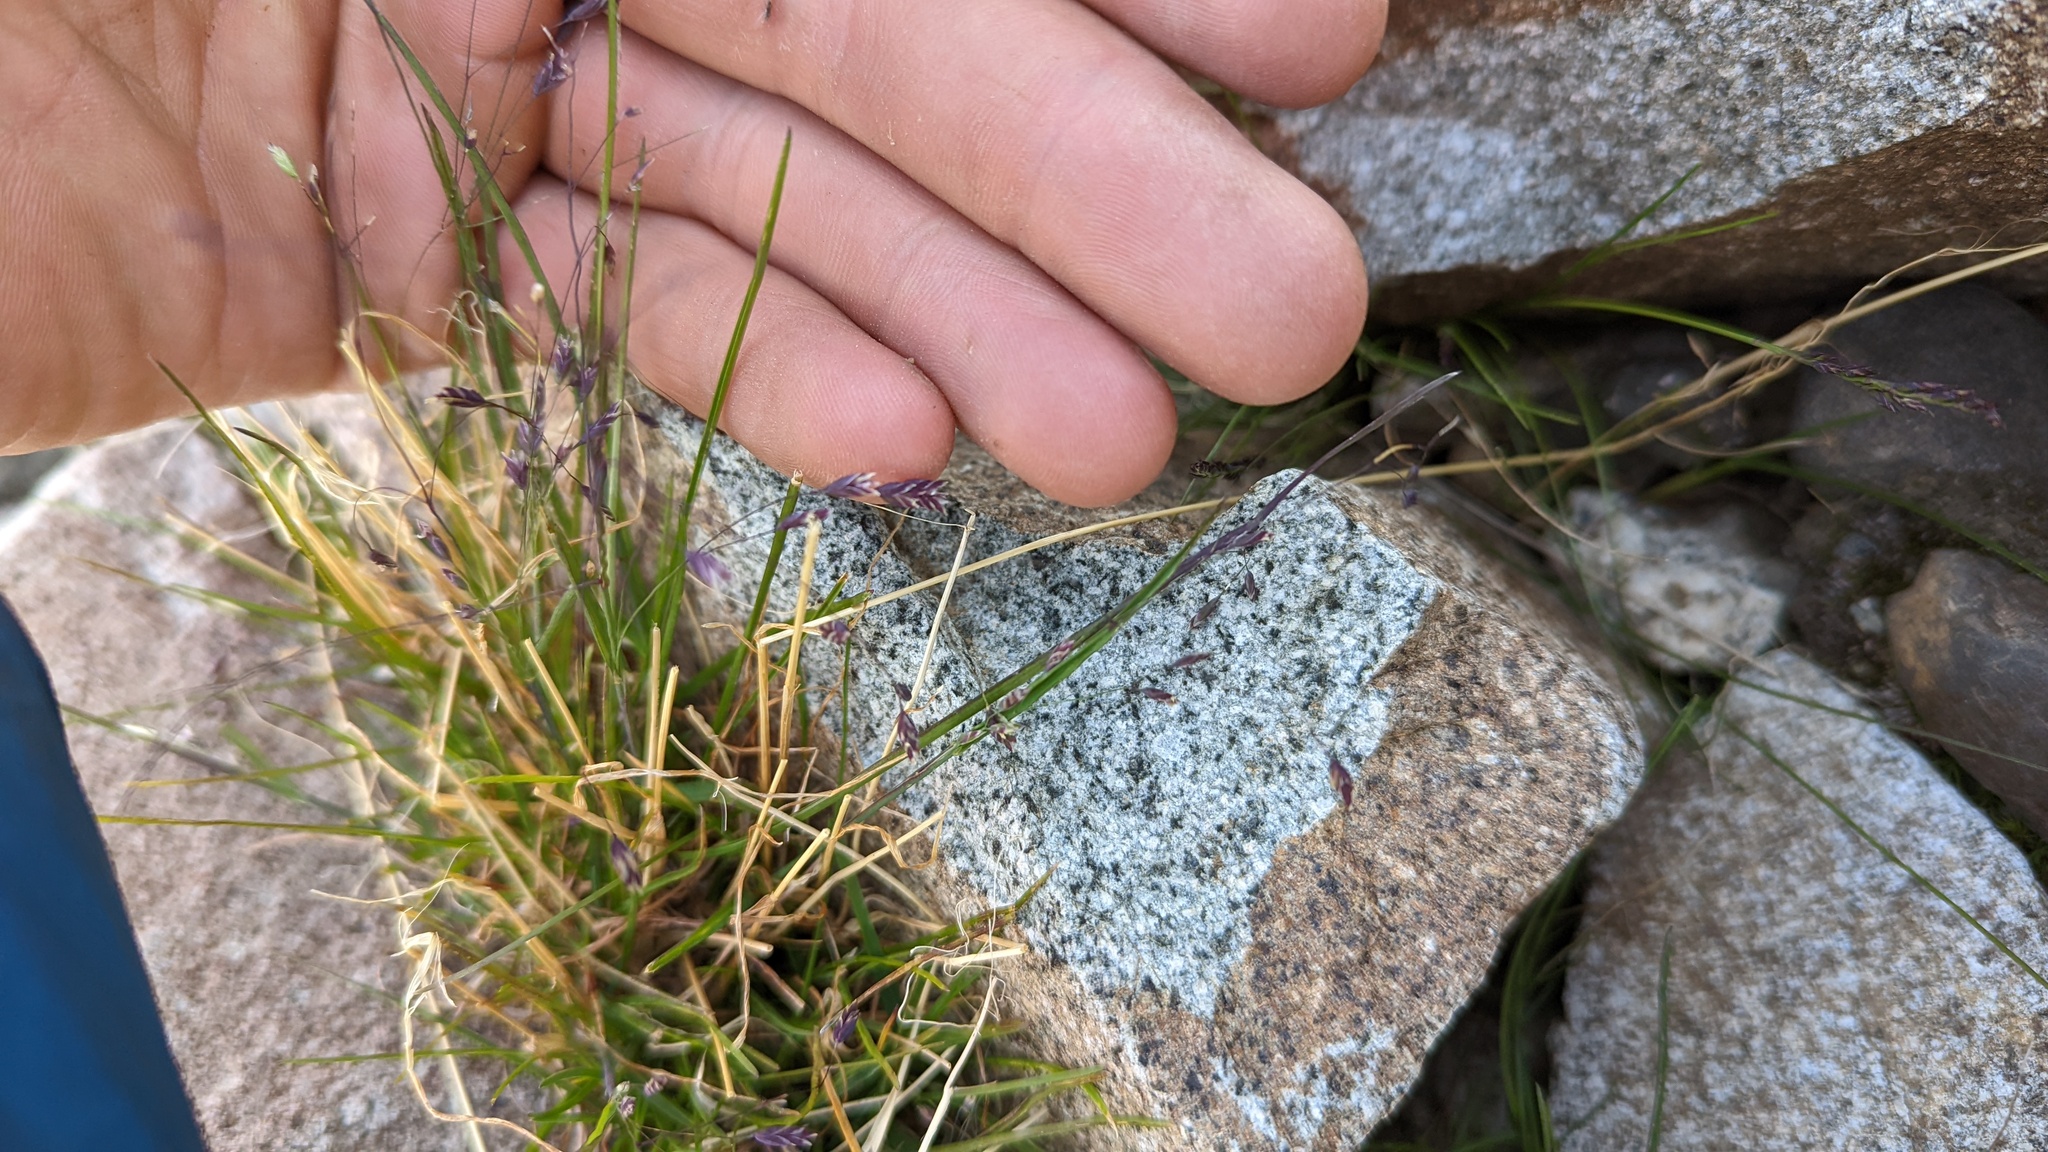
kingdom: Plantae
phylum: Tracheophyta
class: Liliopsida
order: Poales
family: Poaceae
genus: Poa
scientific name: Poa paucispicula
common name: Alaska bluegrass
